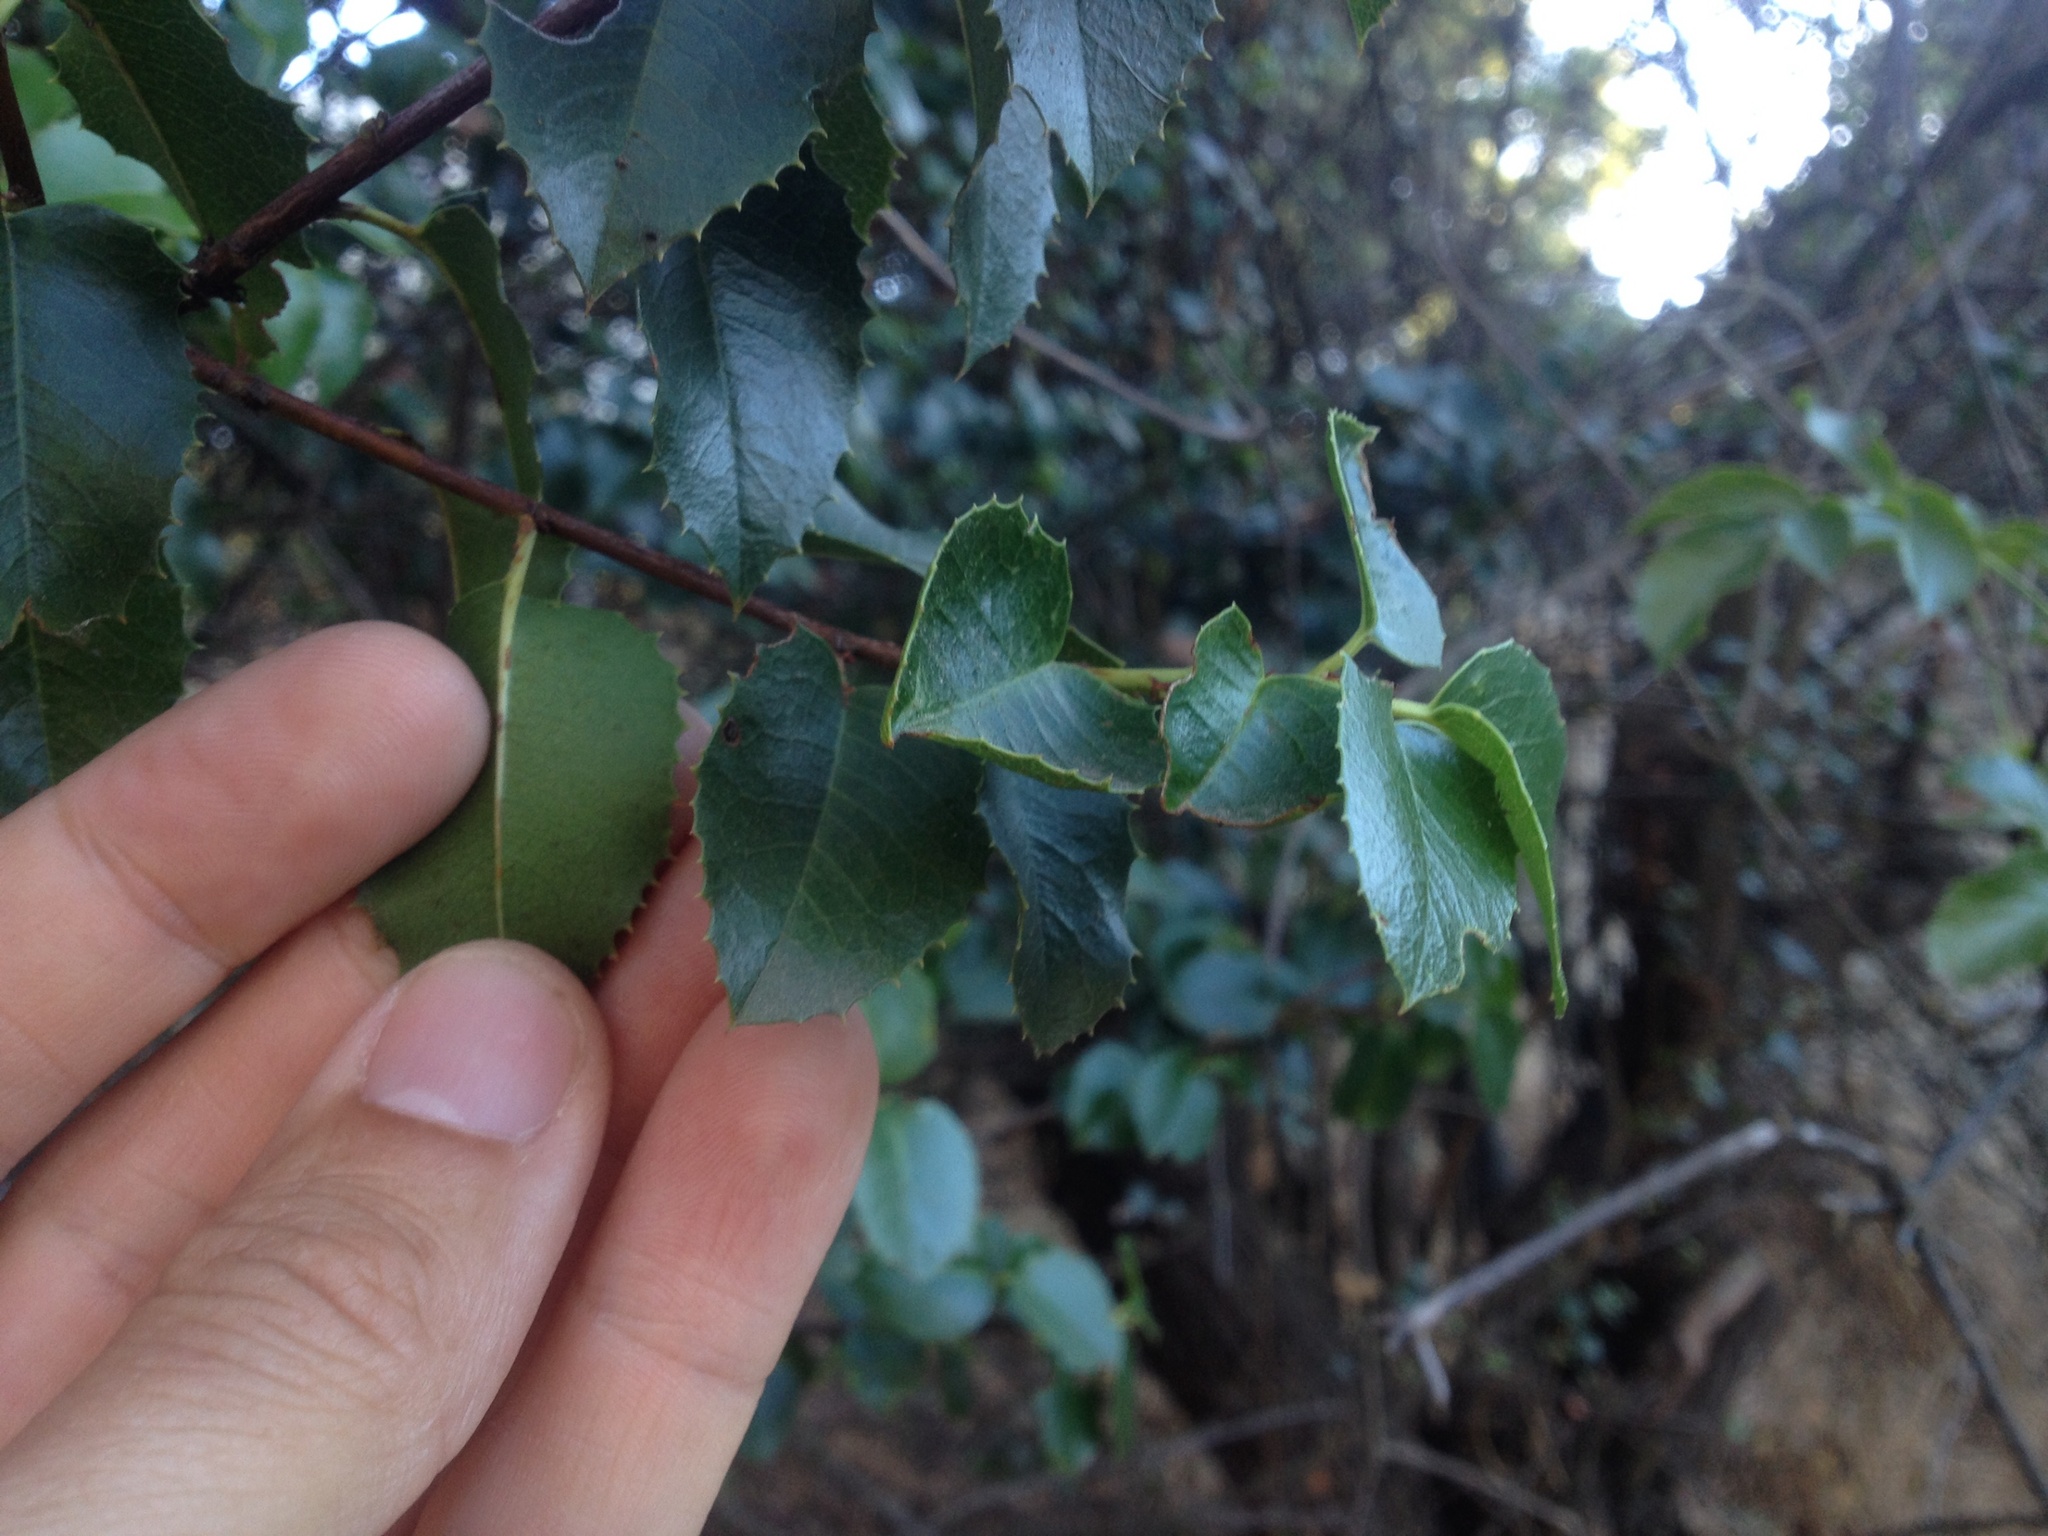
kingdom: Plantae
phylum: Tracheophyta
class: Magnoliopsida
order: Rosales
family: Rosaceae
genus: Prunus
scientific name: Prunus ilicifolia
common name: Hollyleaf cherry
